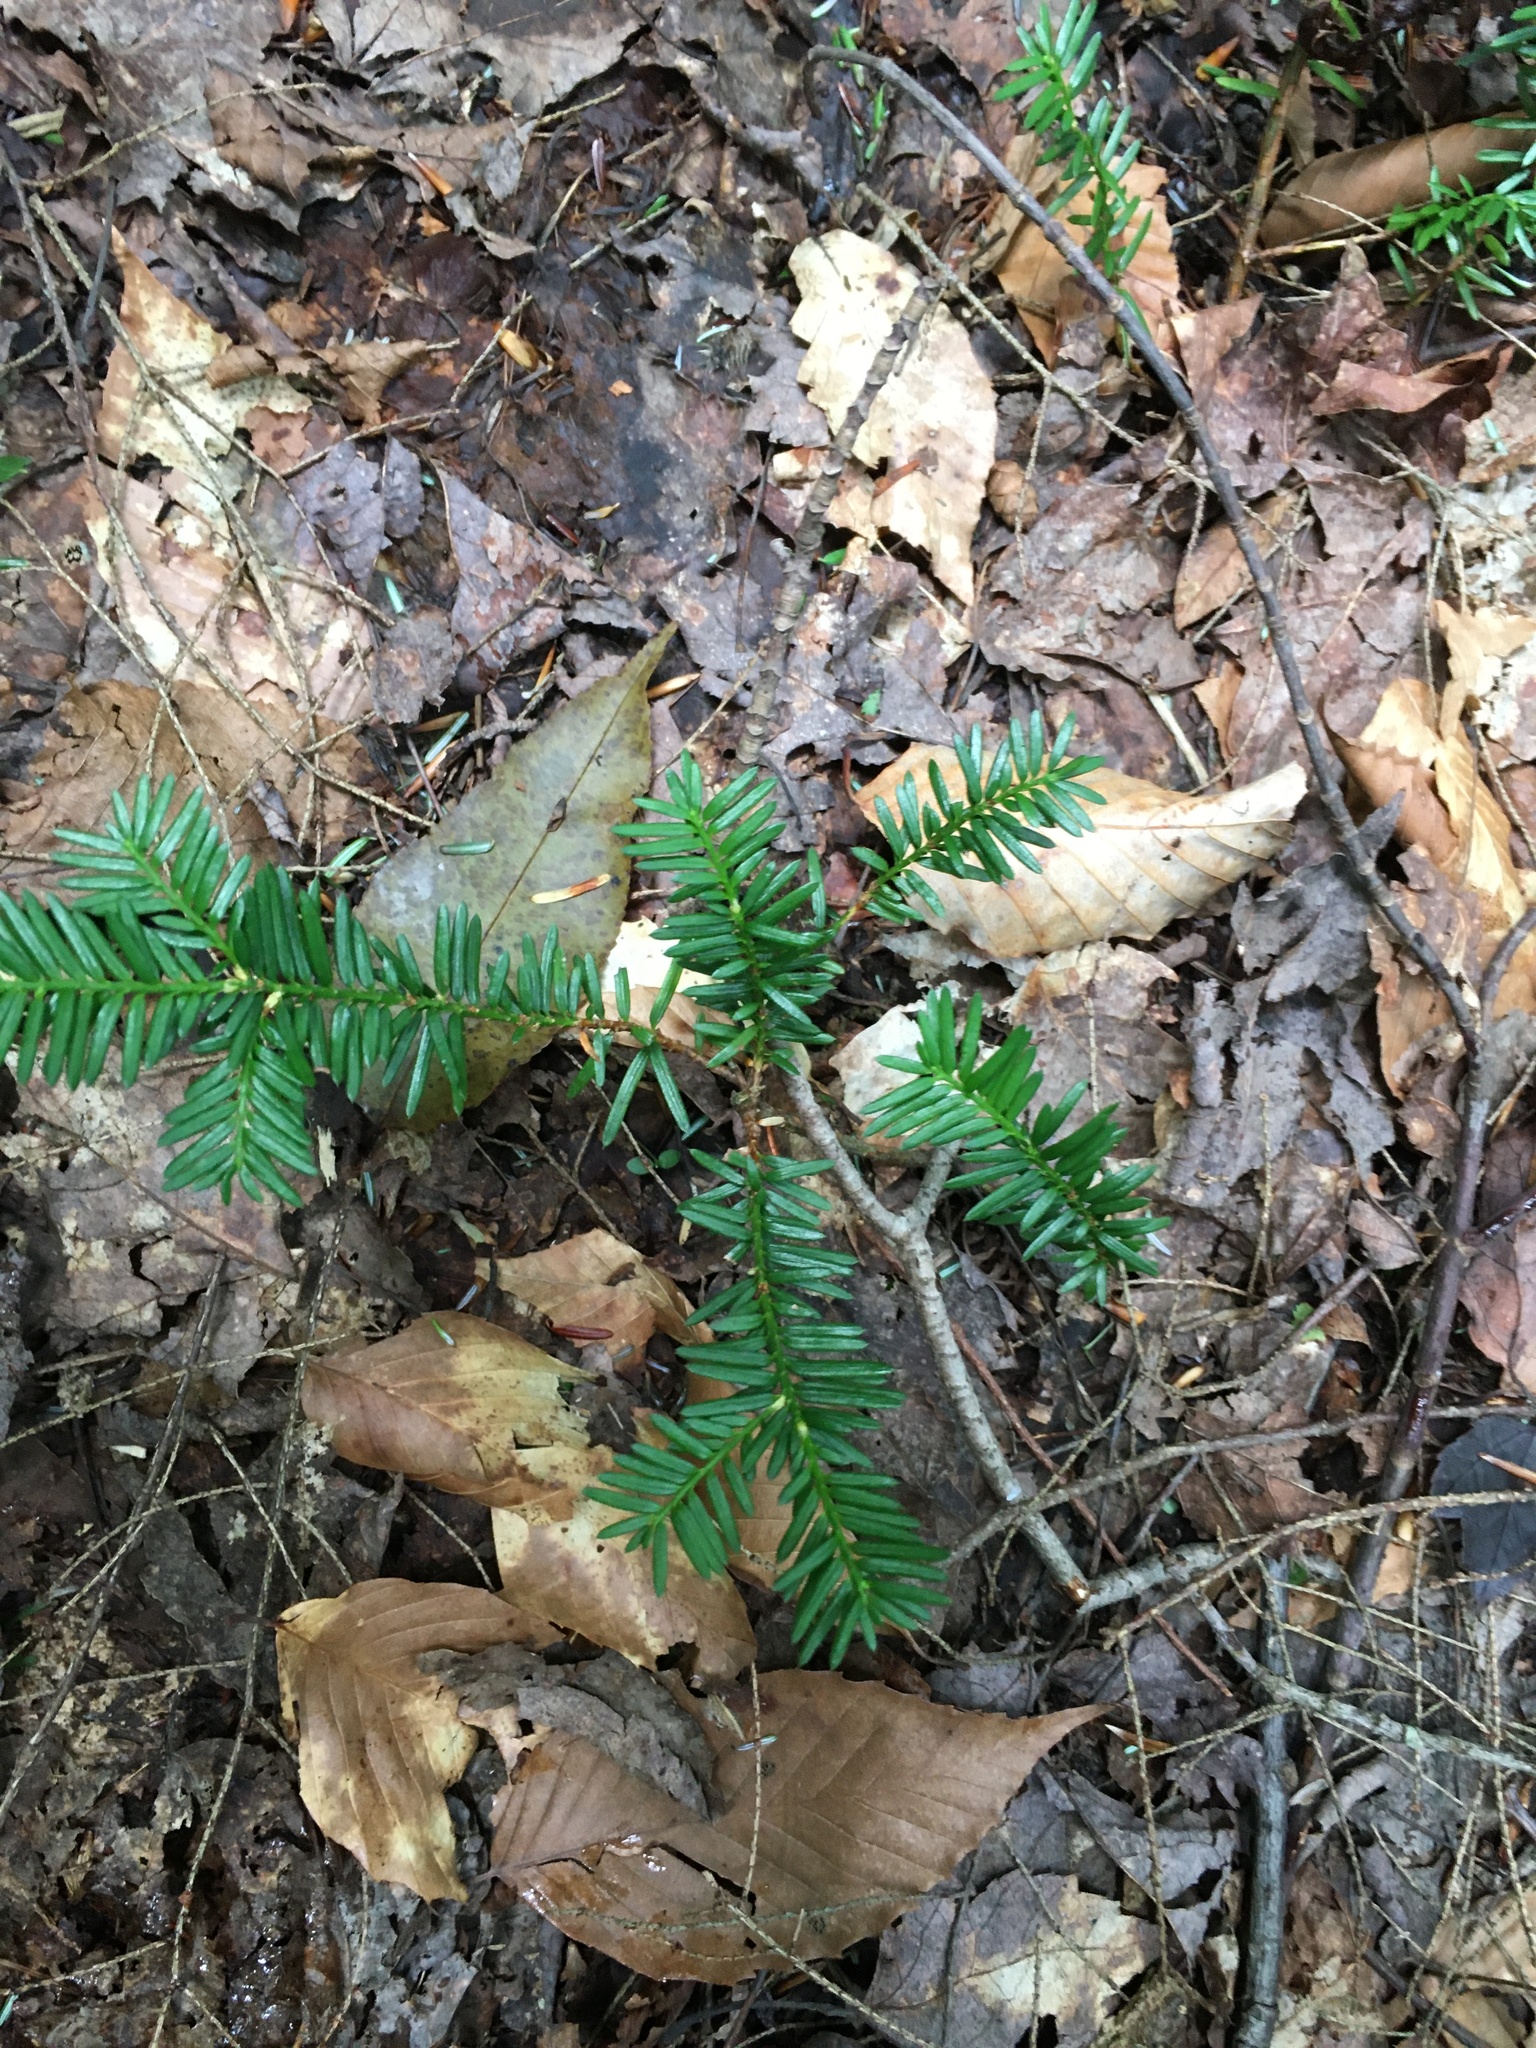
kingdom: Plantae
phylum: Tracheophyta
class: Pinopsida
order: Pinales
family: Taxaceae
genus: Taxus
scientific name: Taxus canadensis
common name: American yew
